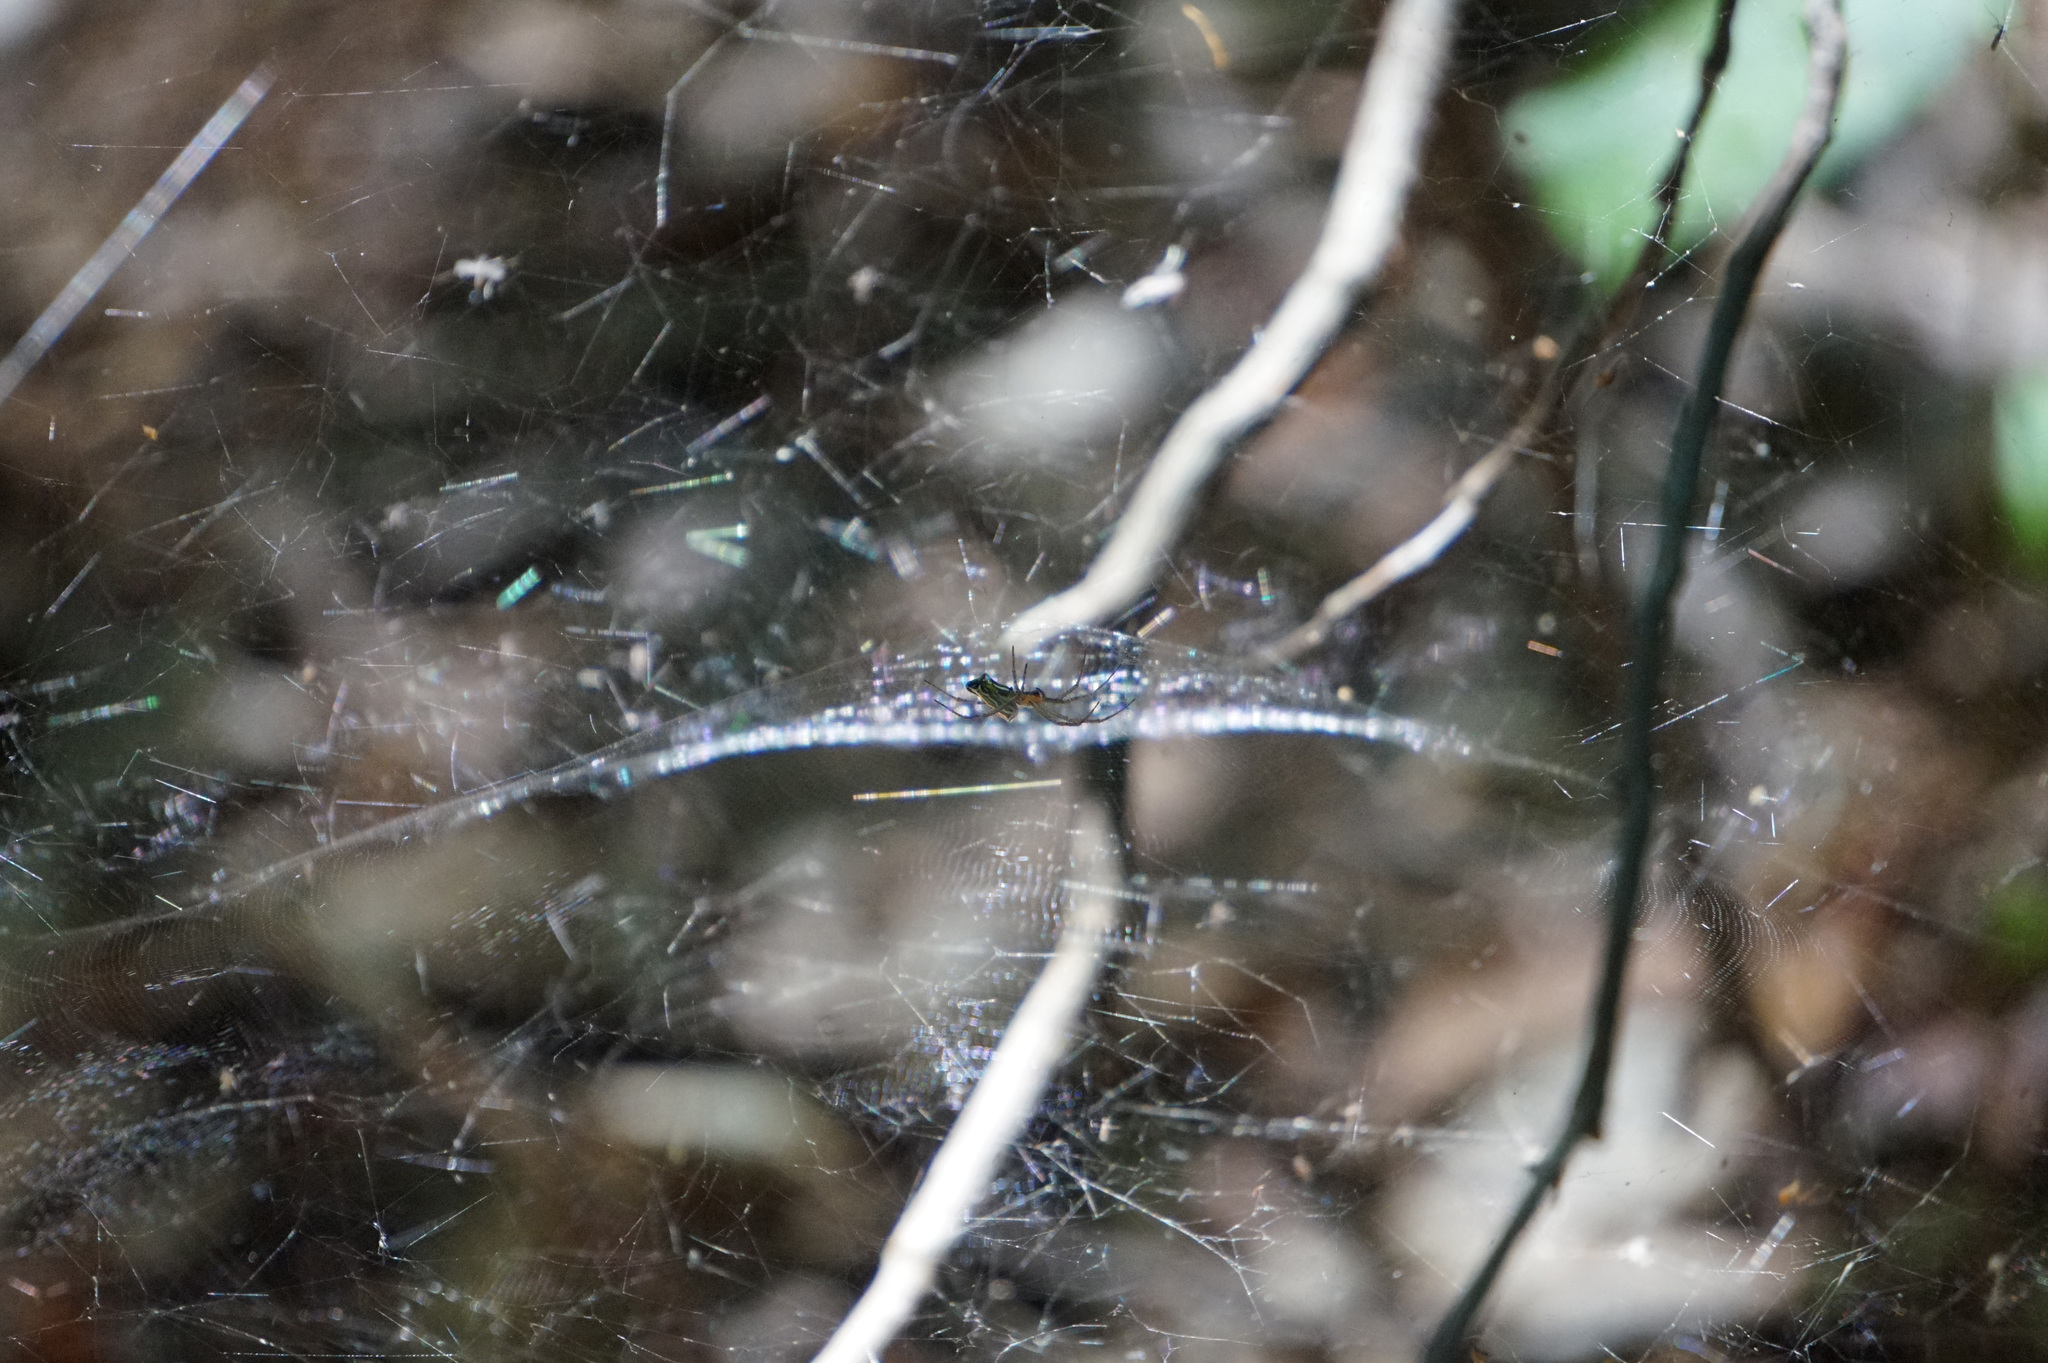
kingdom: Animalia
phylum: Arthropoda
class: Arachnida
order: Araneae
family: Araneidae
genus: Mecynogea
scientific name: Mecynogea lemniscata
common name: Orb weavers
